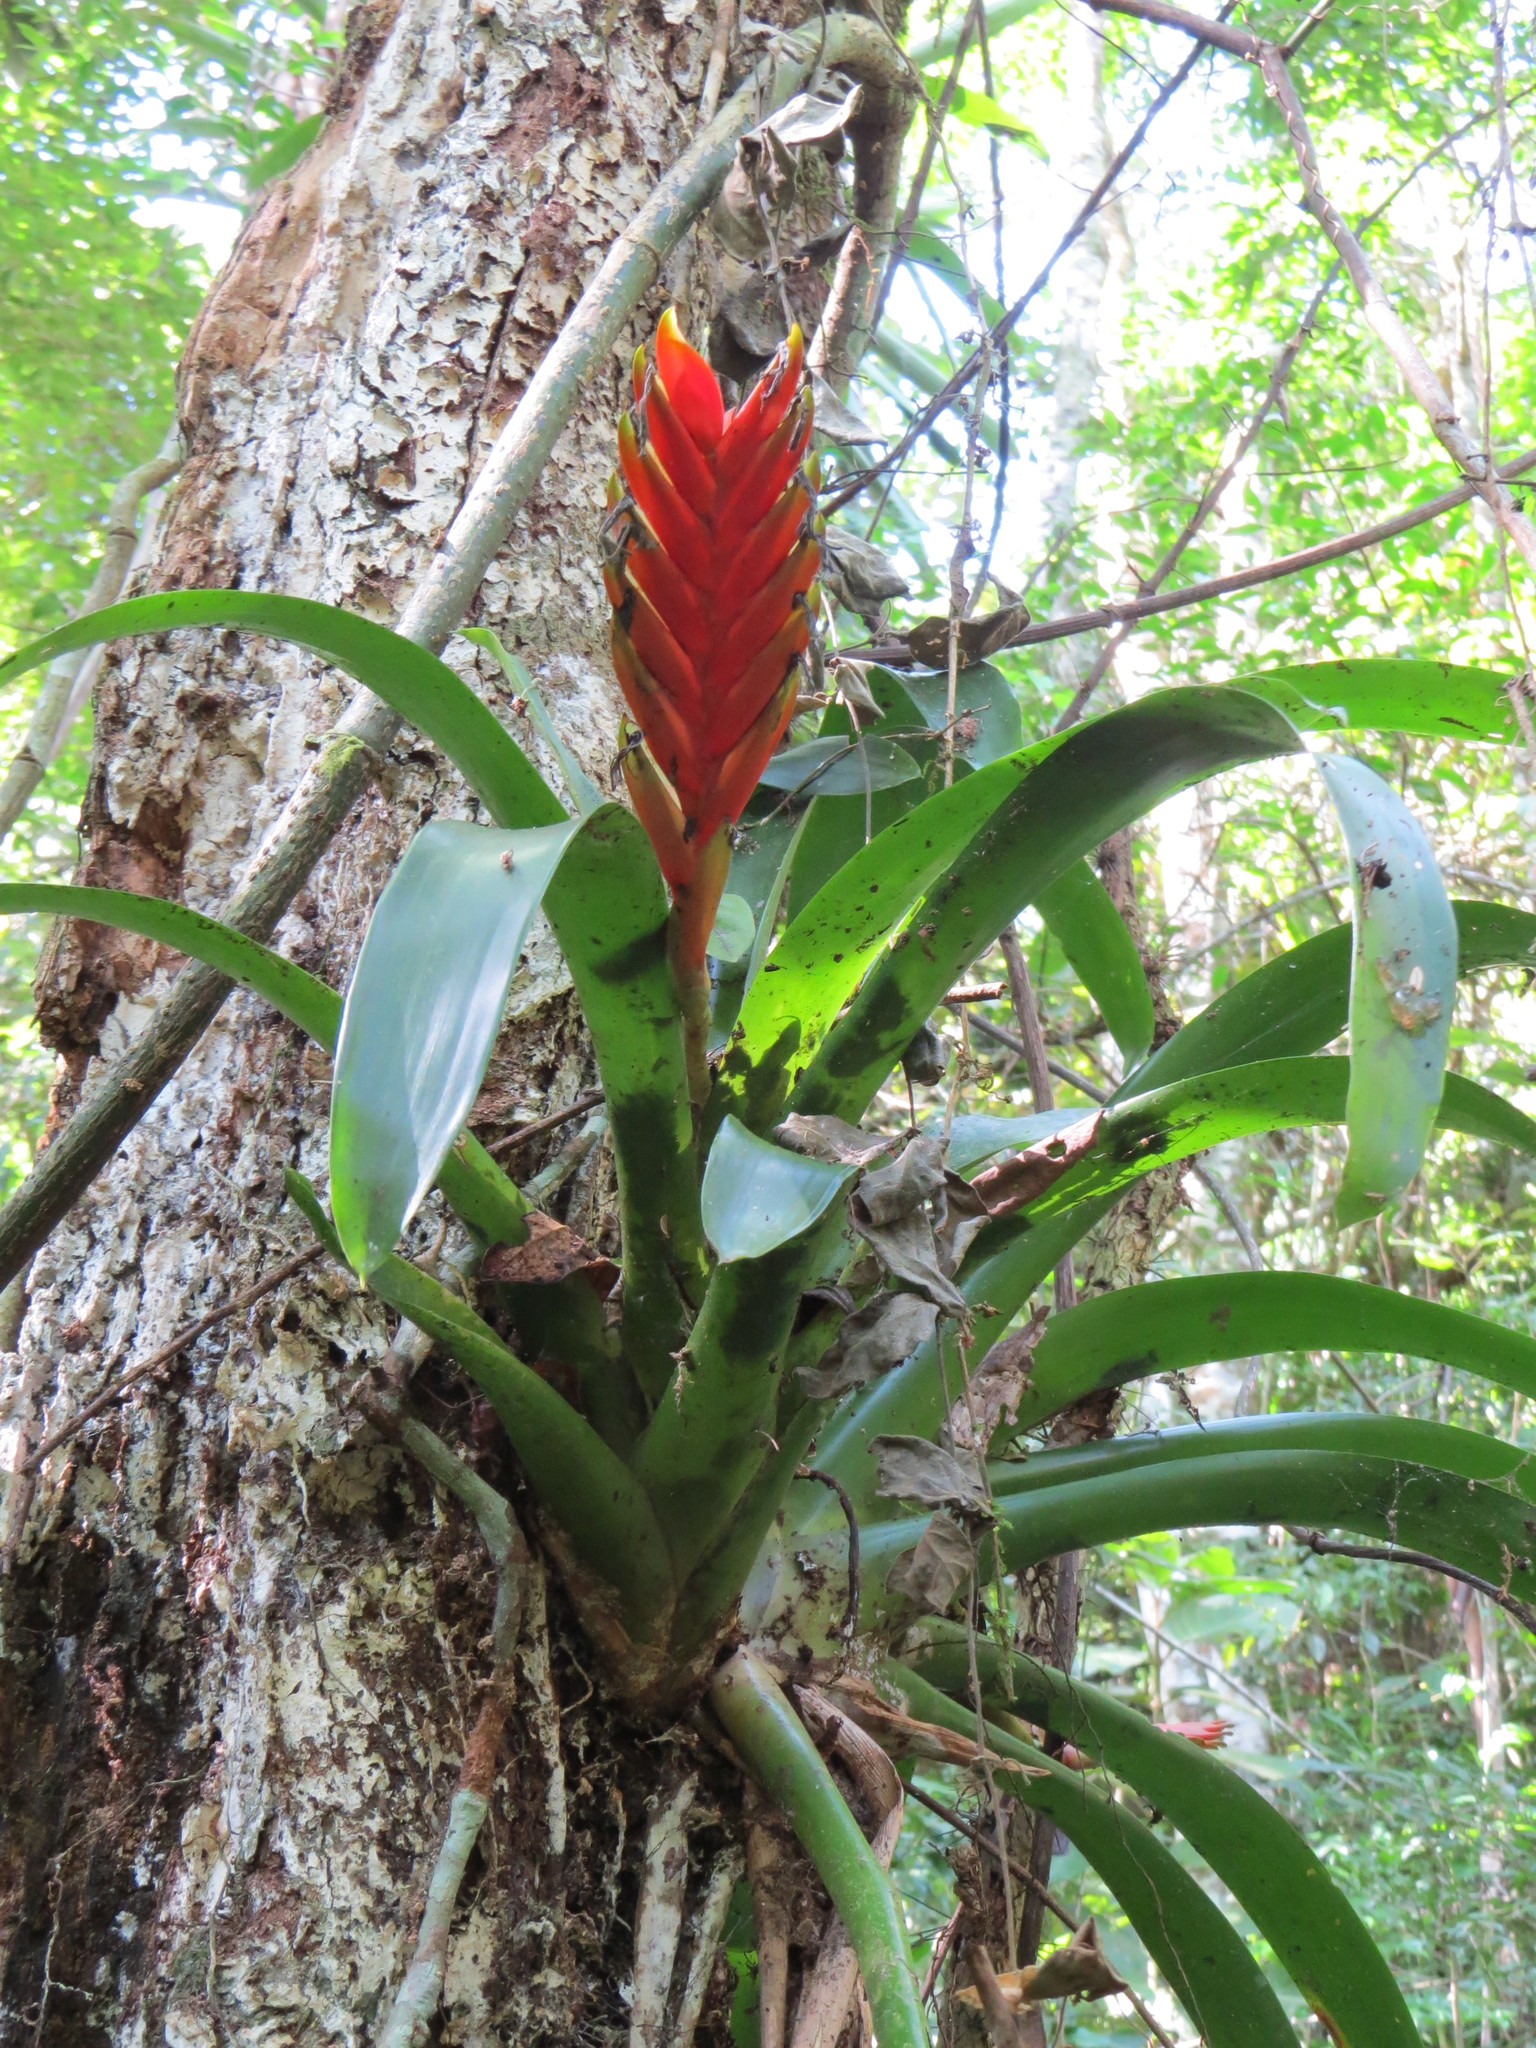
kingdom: Plantae
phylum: Tracheophyta
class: Liliopsida
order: Poales
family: Bromeliaceae
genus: Vriesea
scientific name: Vriesea paraibica
